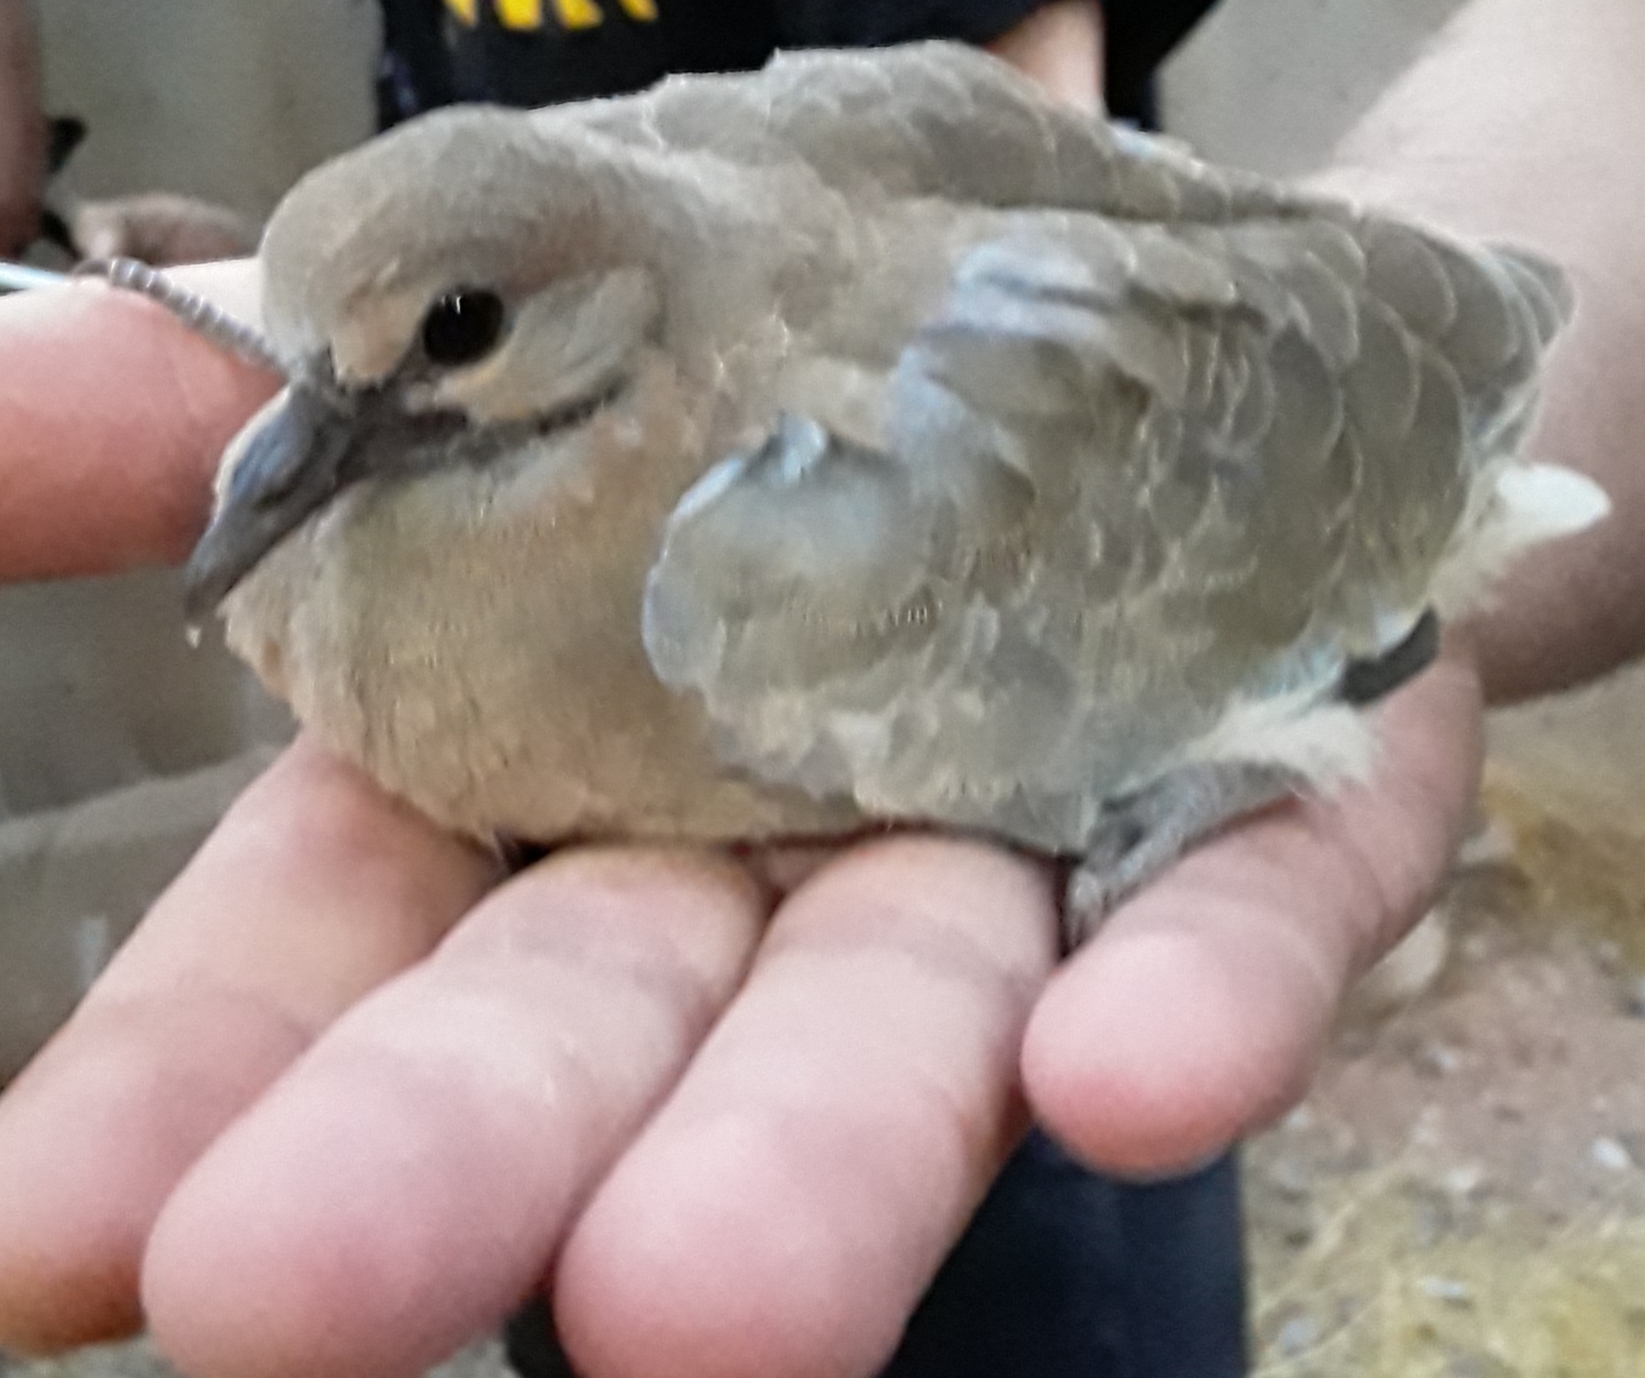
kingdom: Animalia
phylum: Chordata
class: Aves
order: Columbiformes
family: Columbidae
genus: Streptopelia
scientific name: Streptopelia decaocto
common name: Eurasian collared dove
